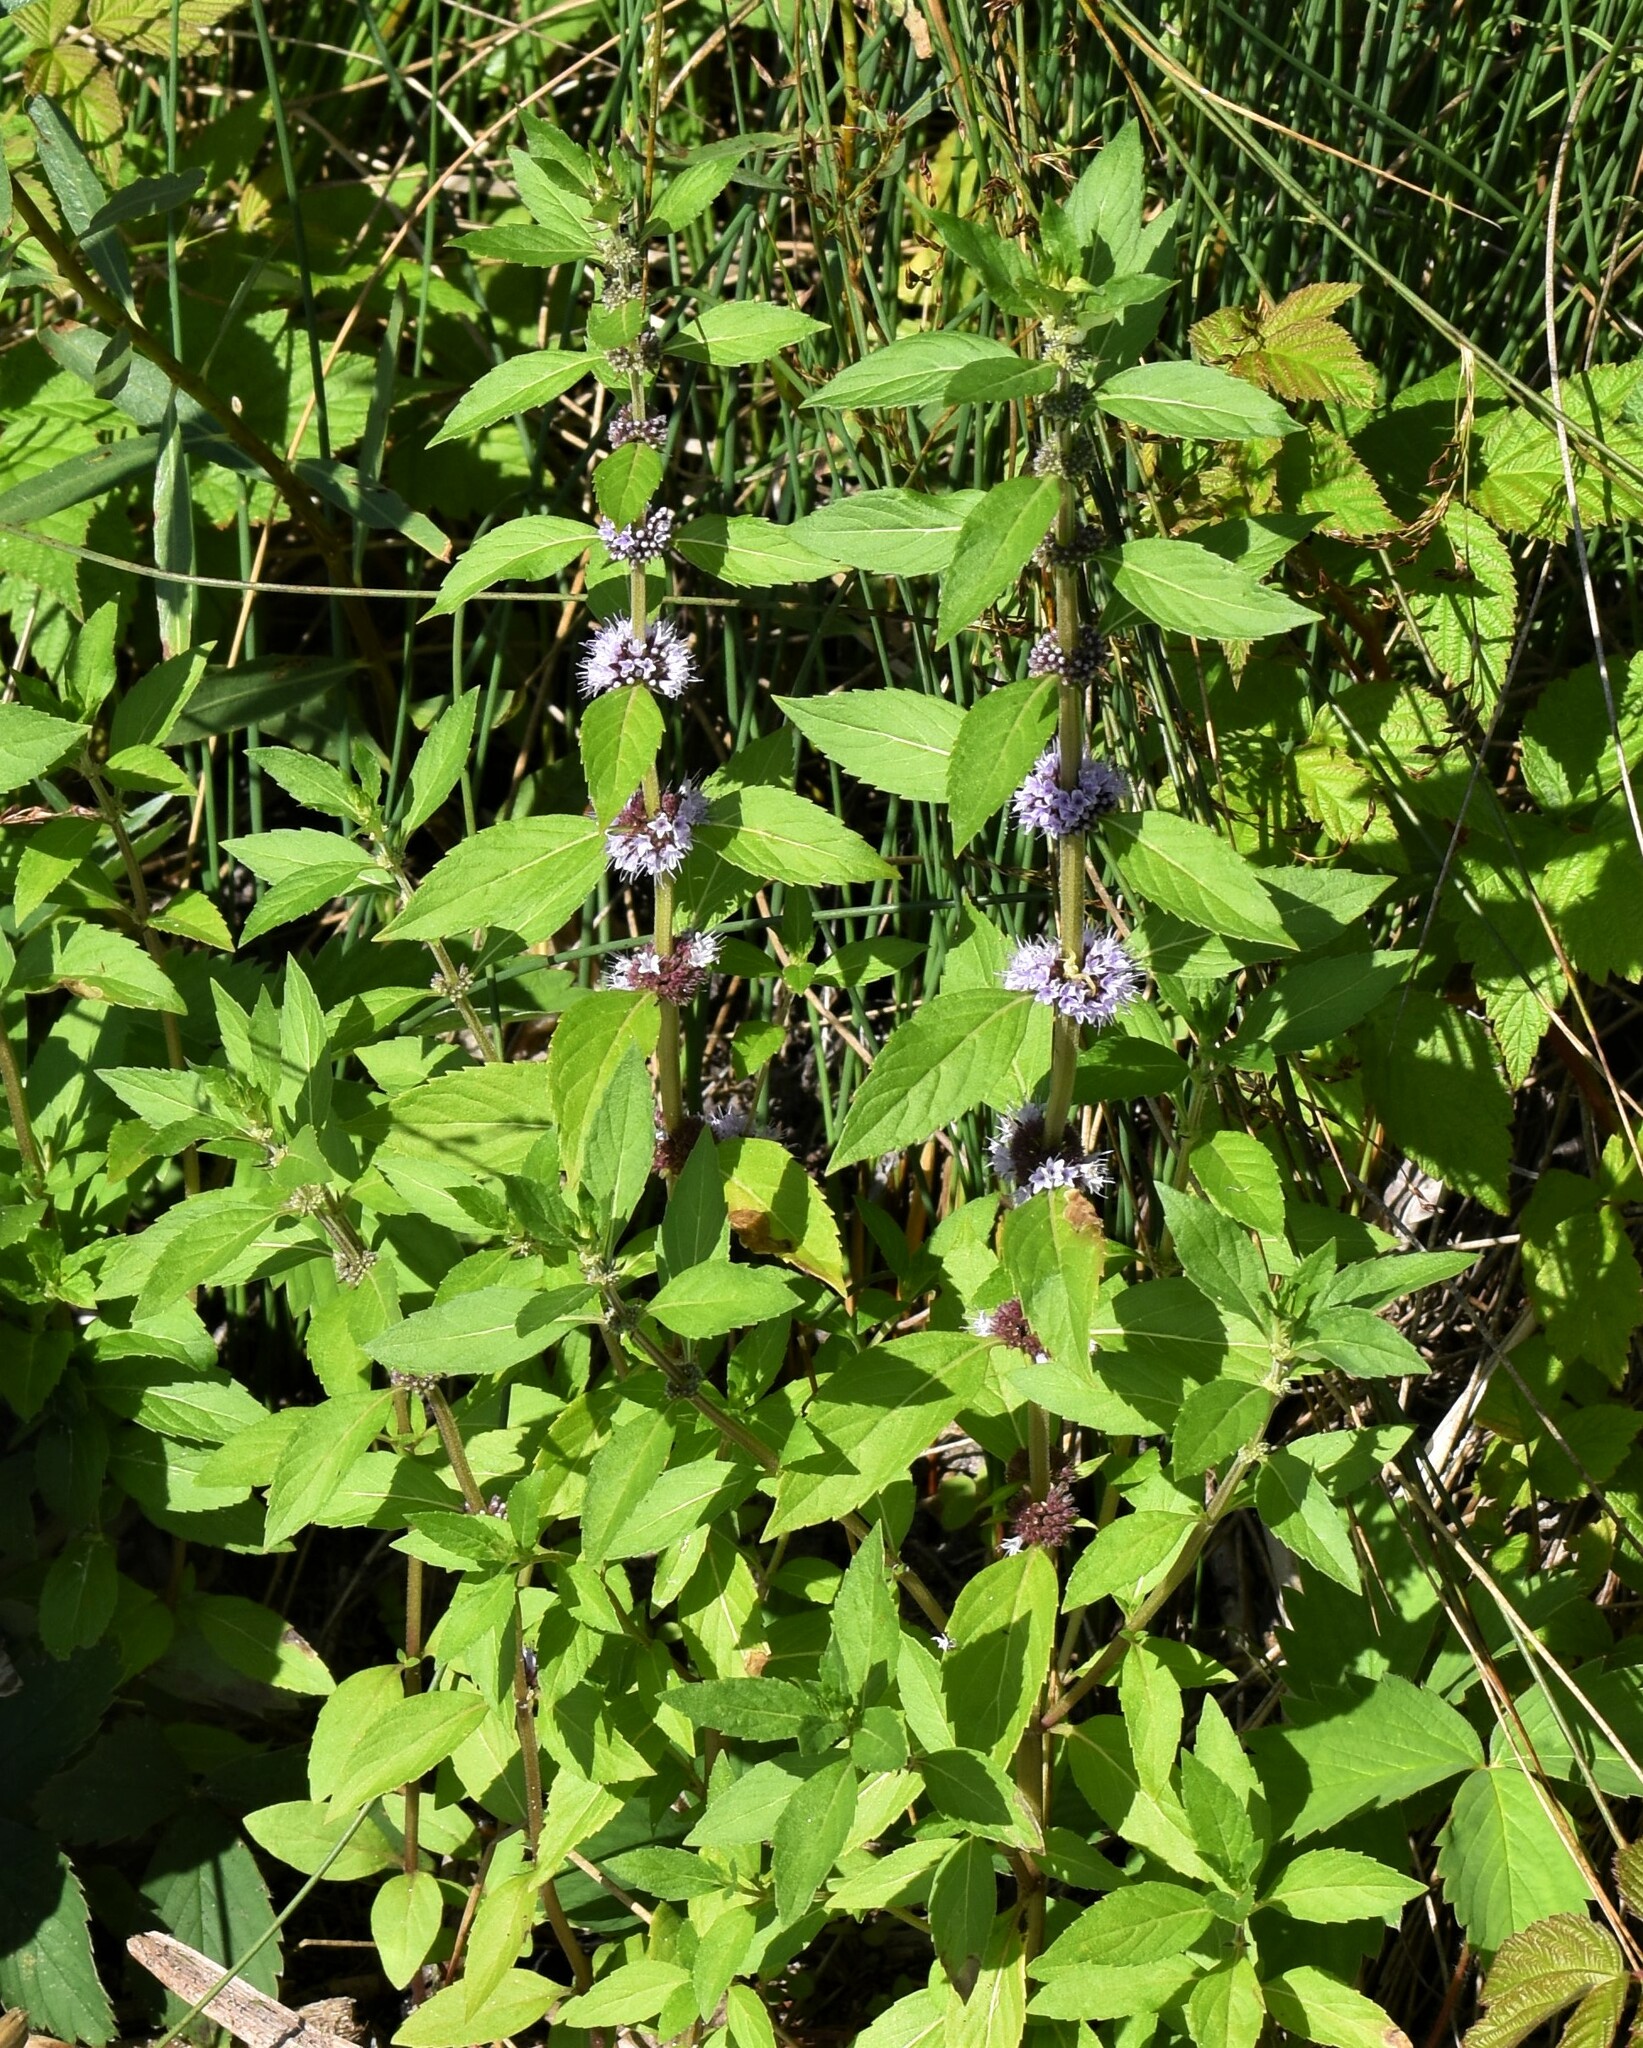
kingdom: Plantae
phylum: Tracheophyta
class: Magnoliopsida
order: Lamiales
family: Lamiaceae
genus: Mentha
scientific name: Mentha canadensis
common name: American corn mint
